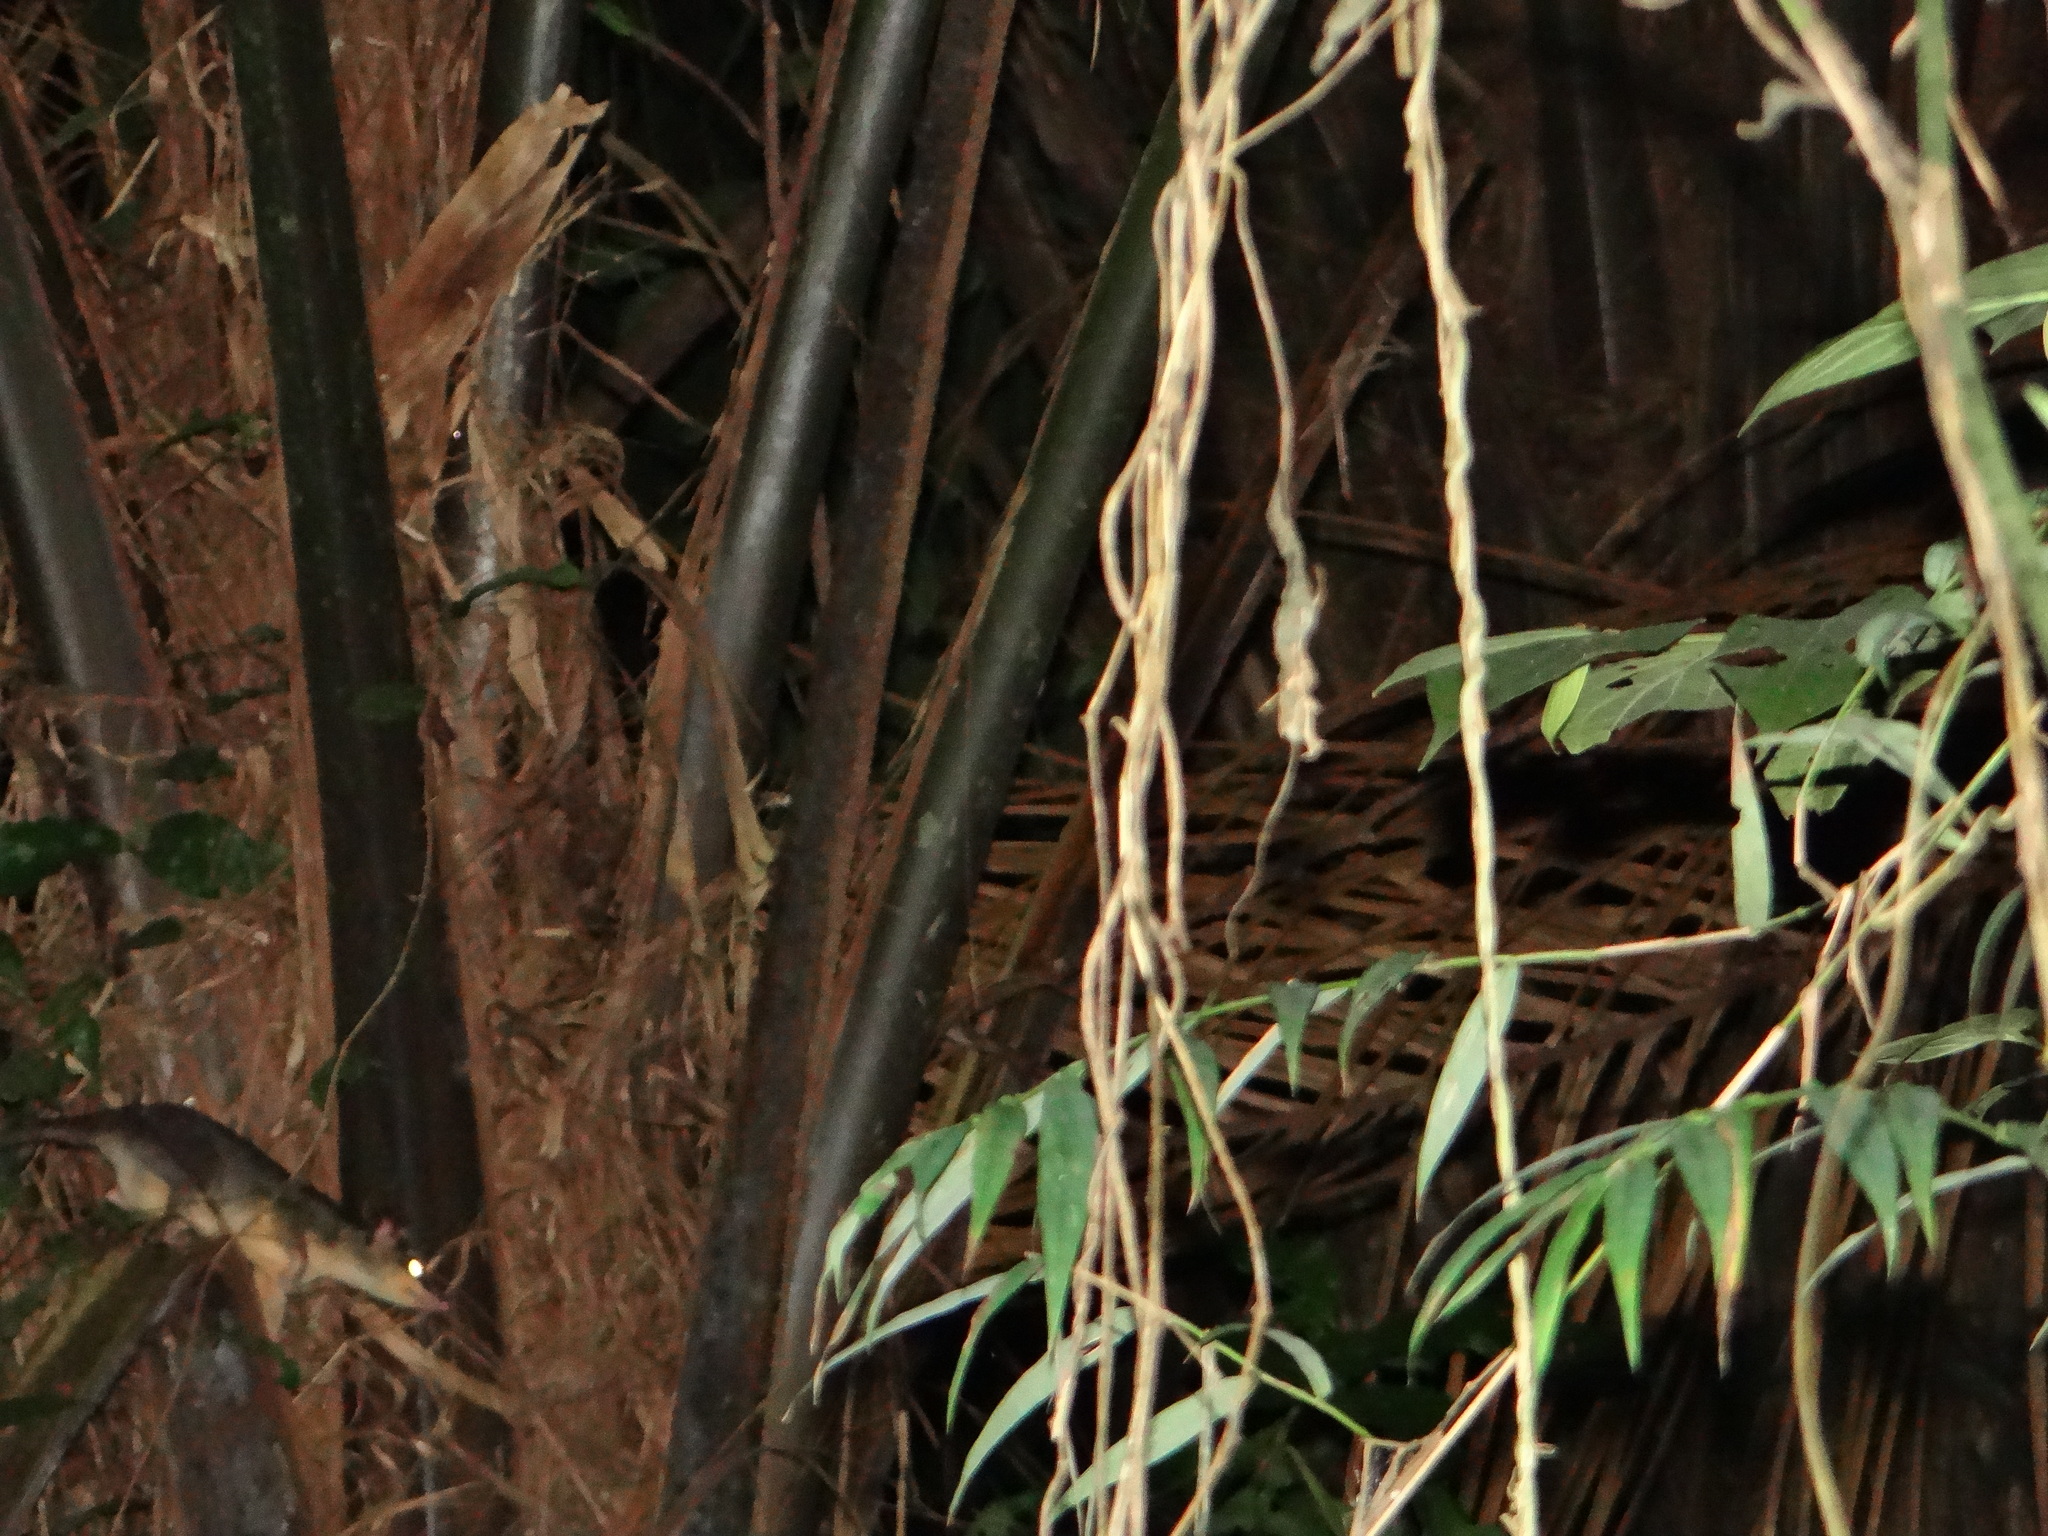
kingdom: Animalia
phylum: Chordata
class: Mammalia
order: Didelphimorphia
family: Didelphidae
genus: Philander
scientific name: Philander
